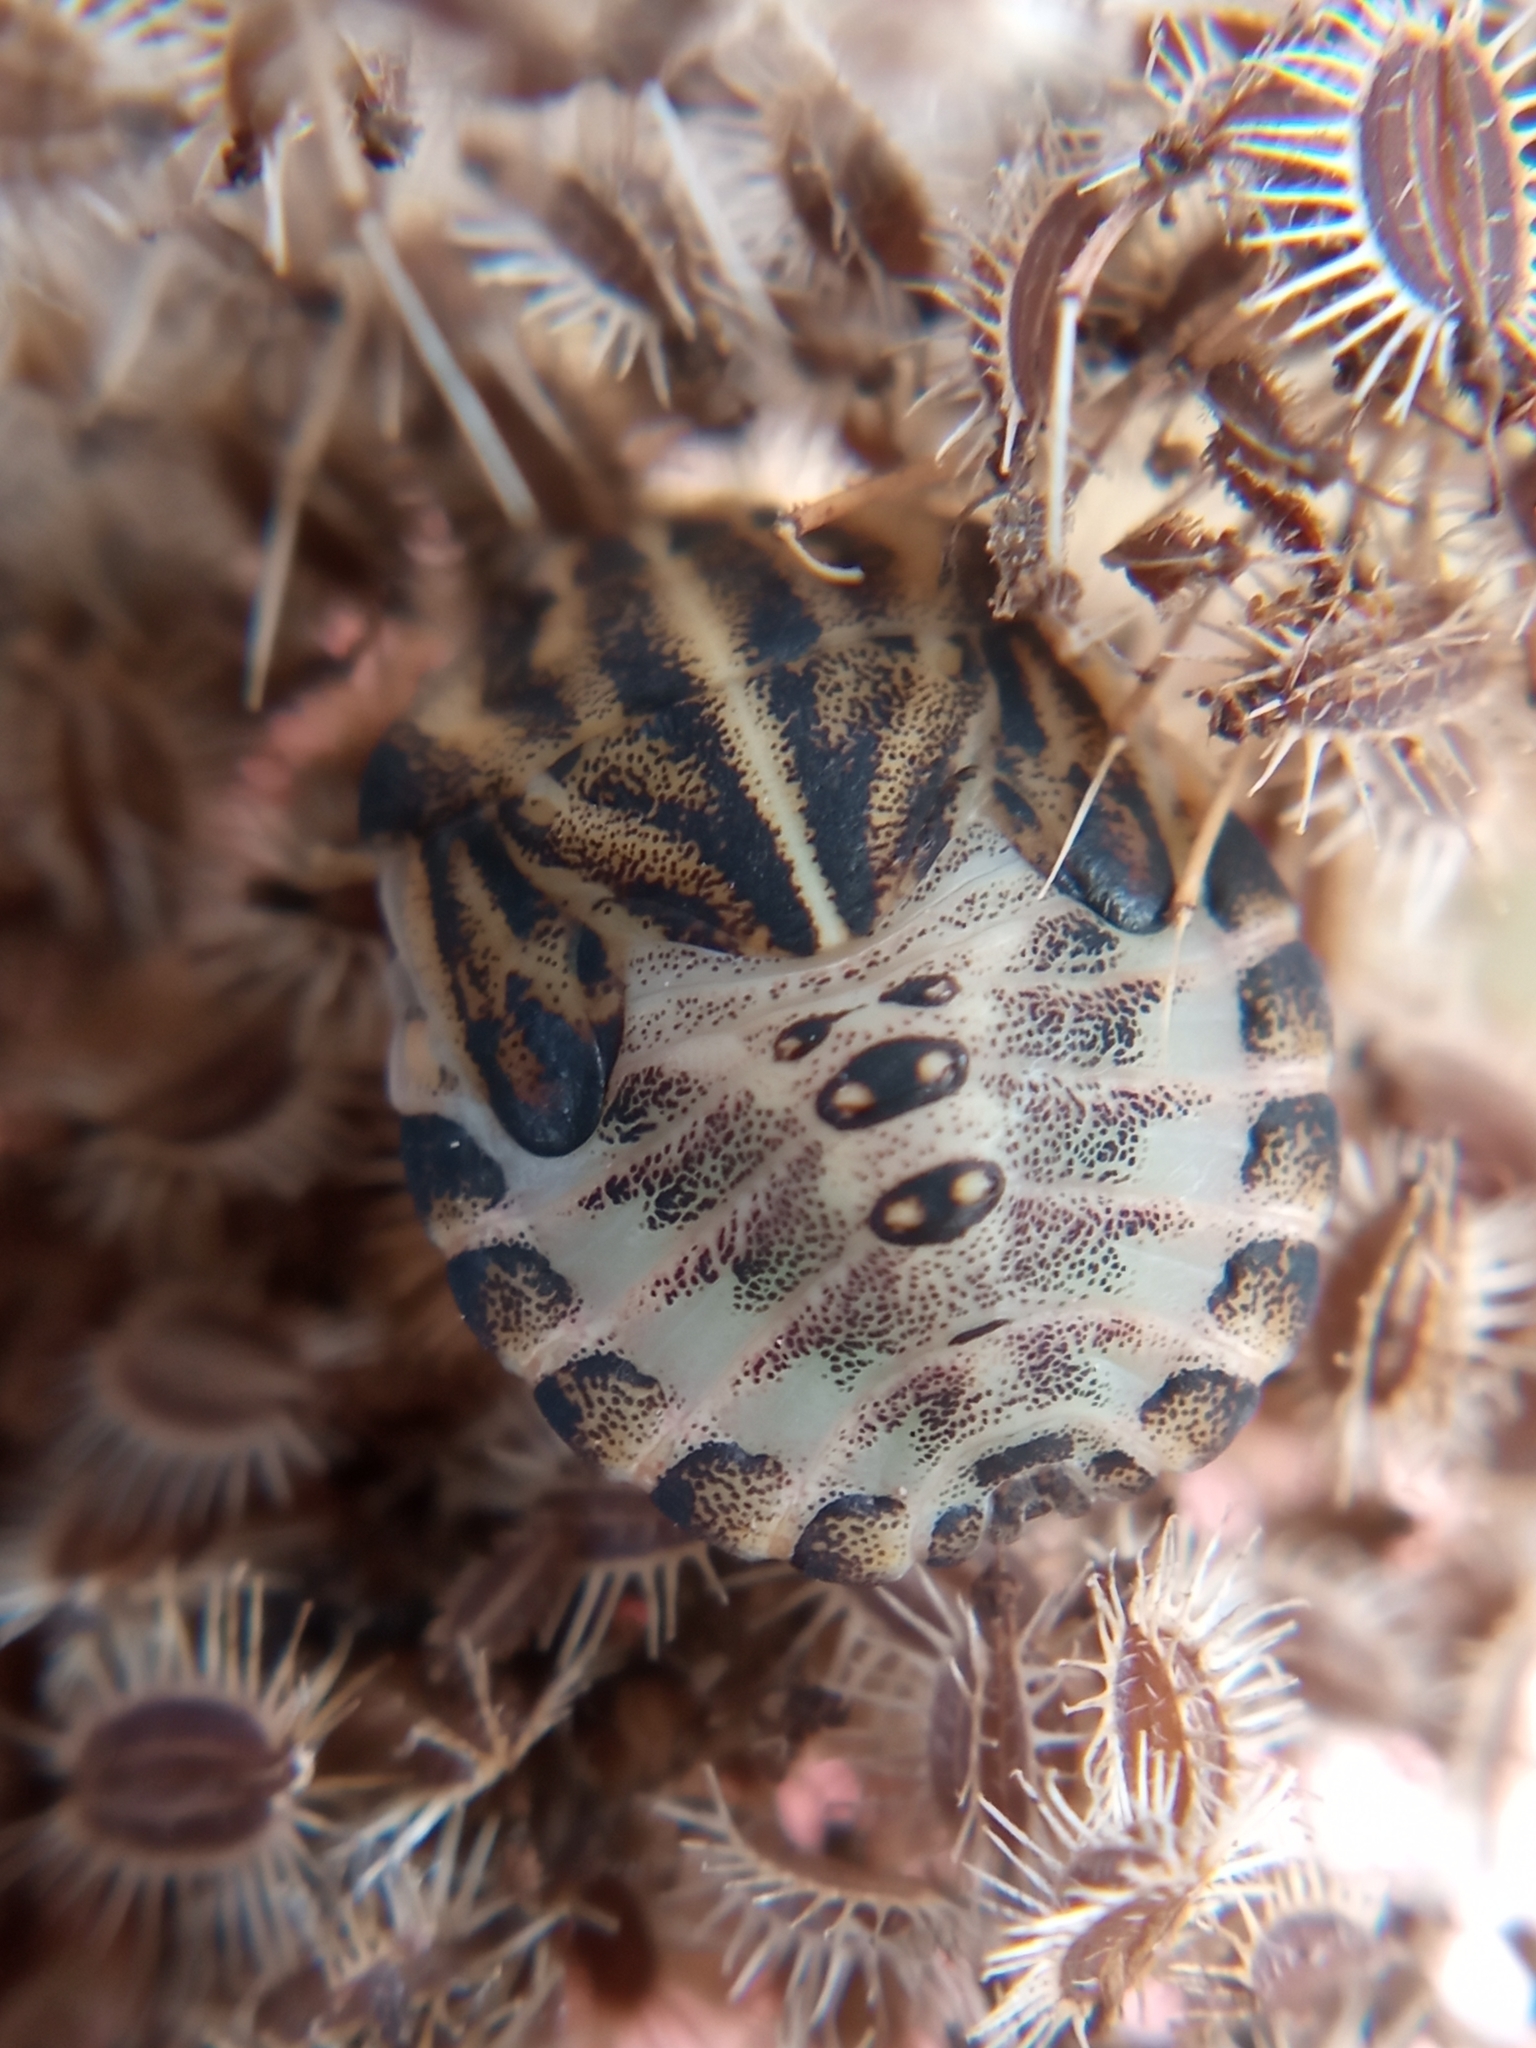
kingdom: Animalia
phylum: Arthropoda
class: Insecta
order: Hemiptera
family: Pentatomidae
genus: Graphosoma
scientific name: Graphosoma italicum
